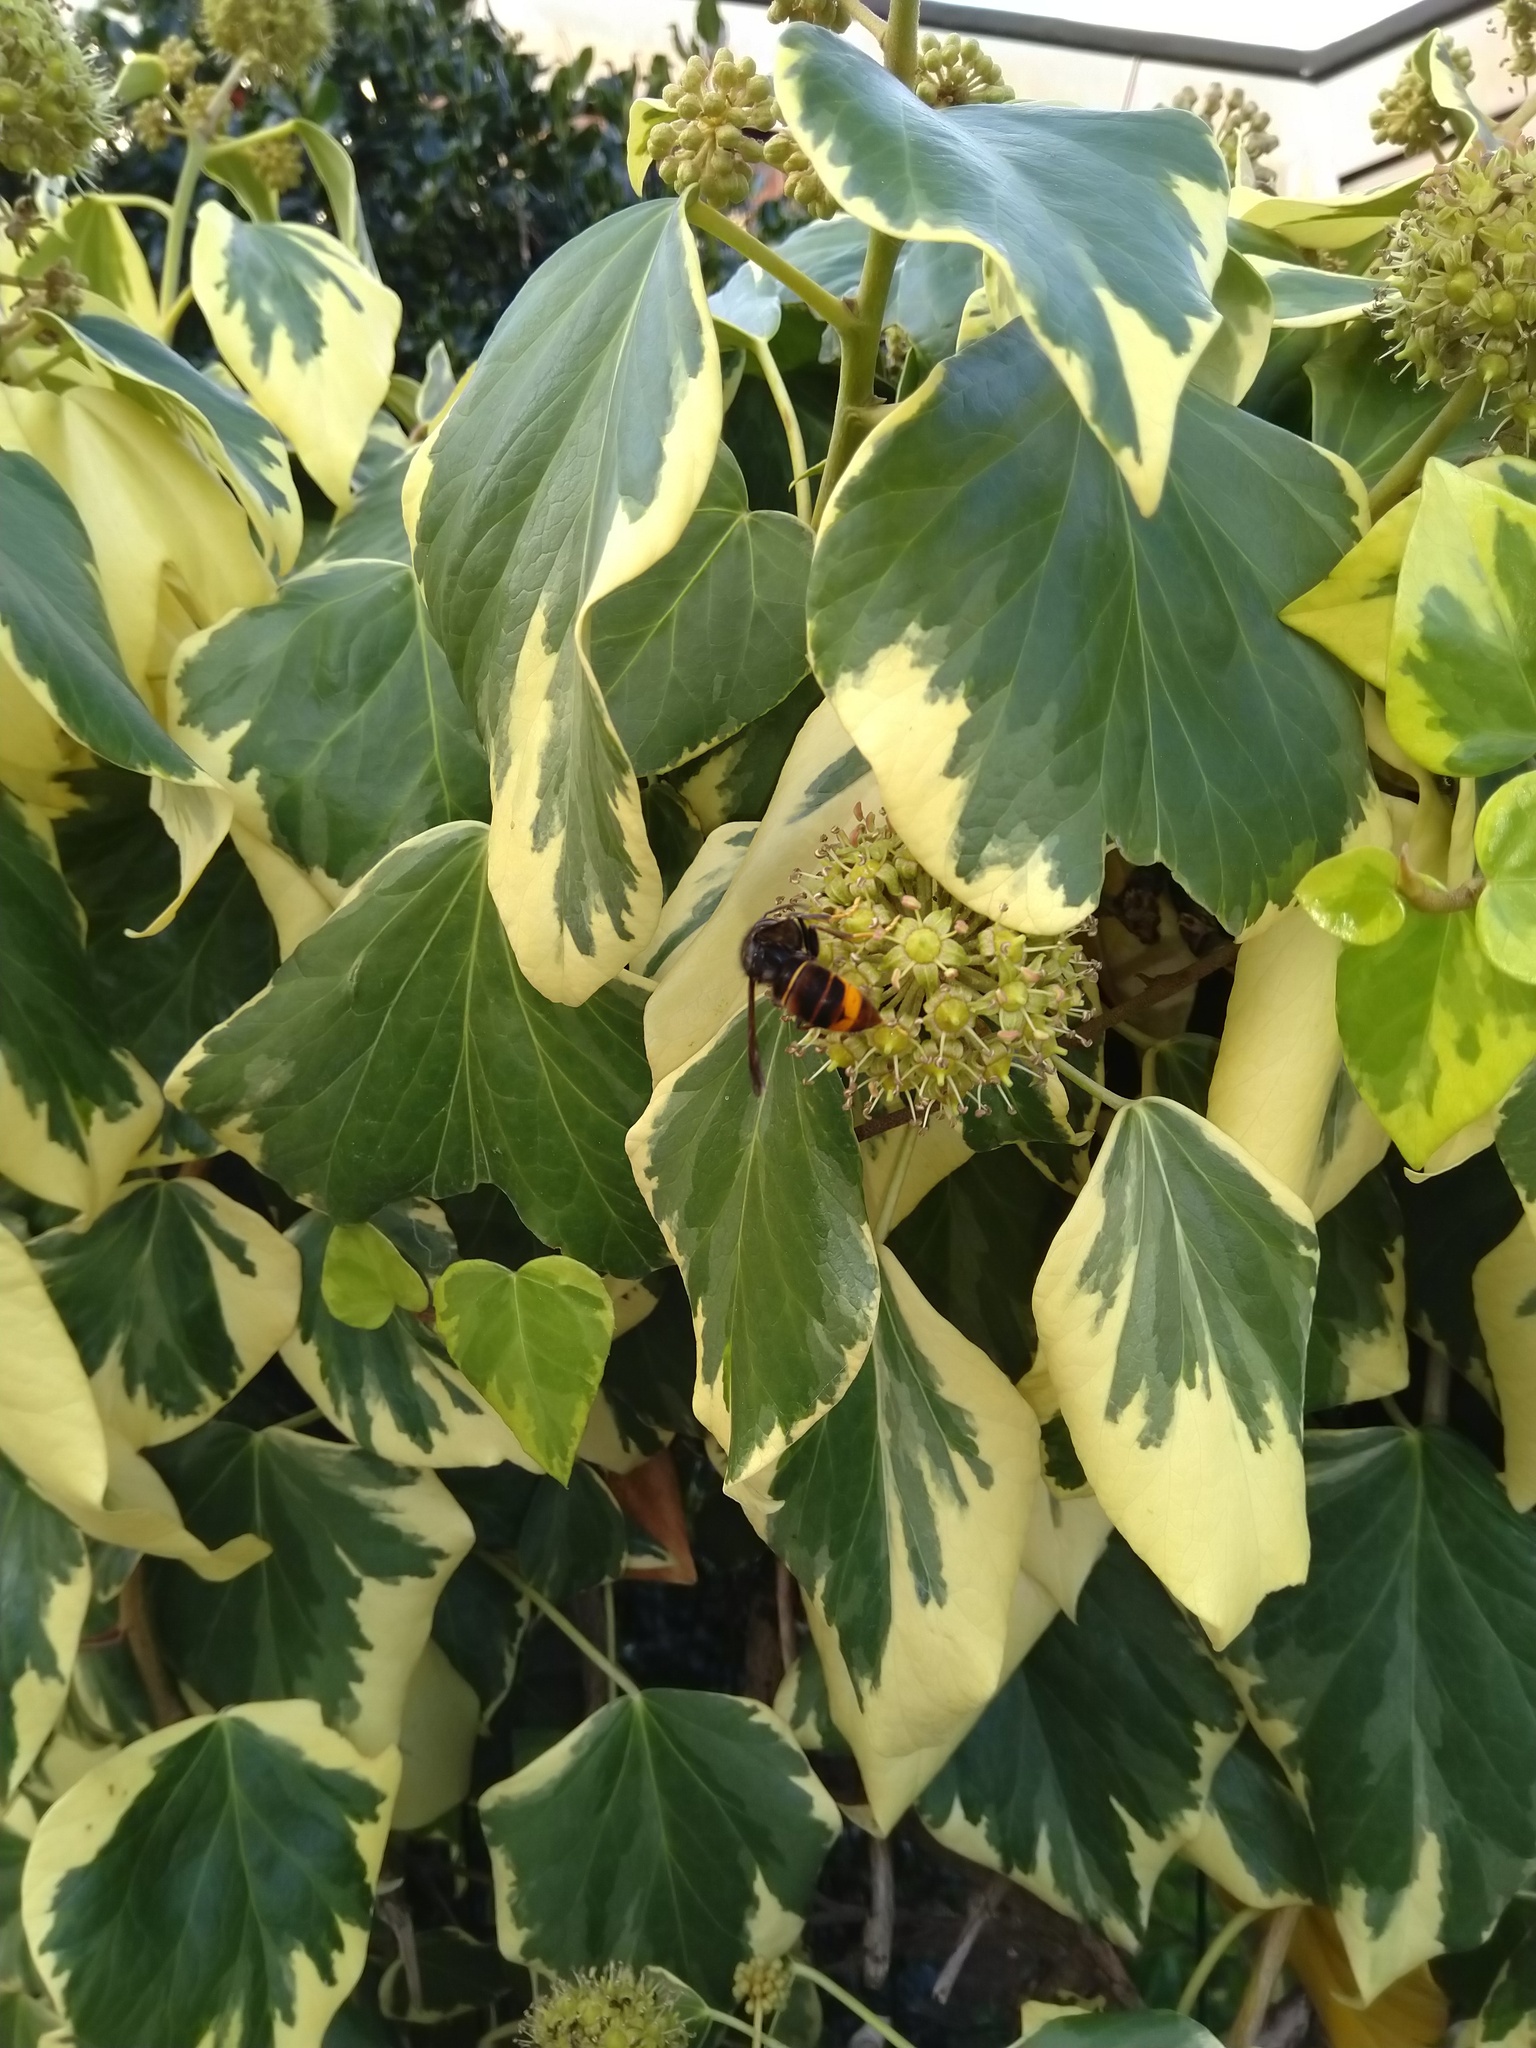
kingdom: Animalia
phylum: Arthropoda
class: Insecta
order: Hymenoptera
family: Vespidae
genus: Vespa
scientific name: Vespa velutina
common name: Asian hornet
